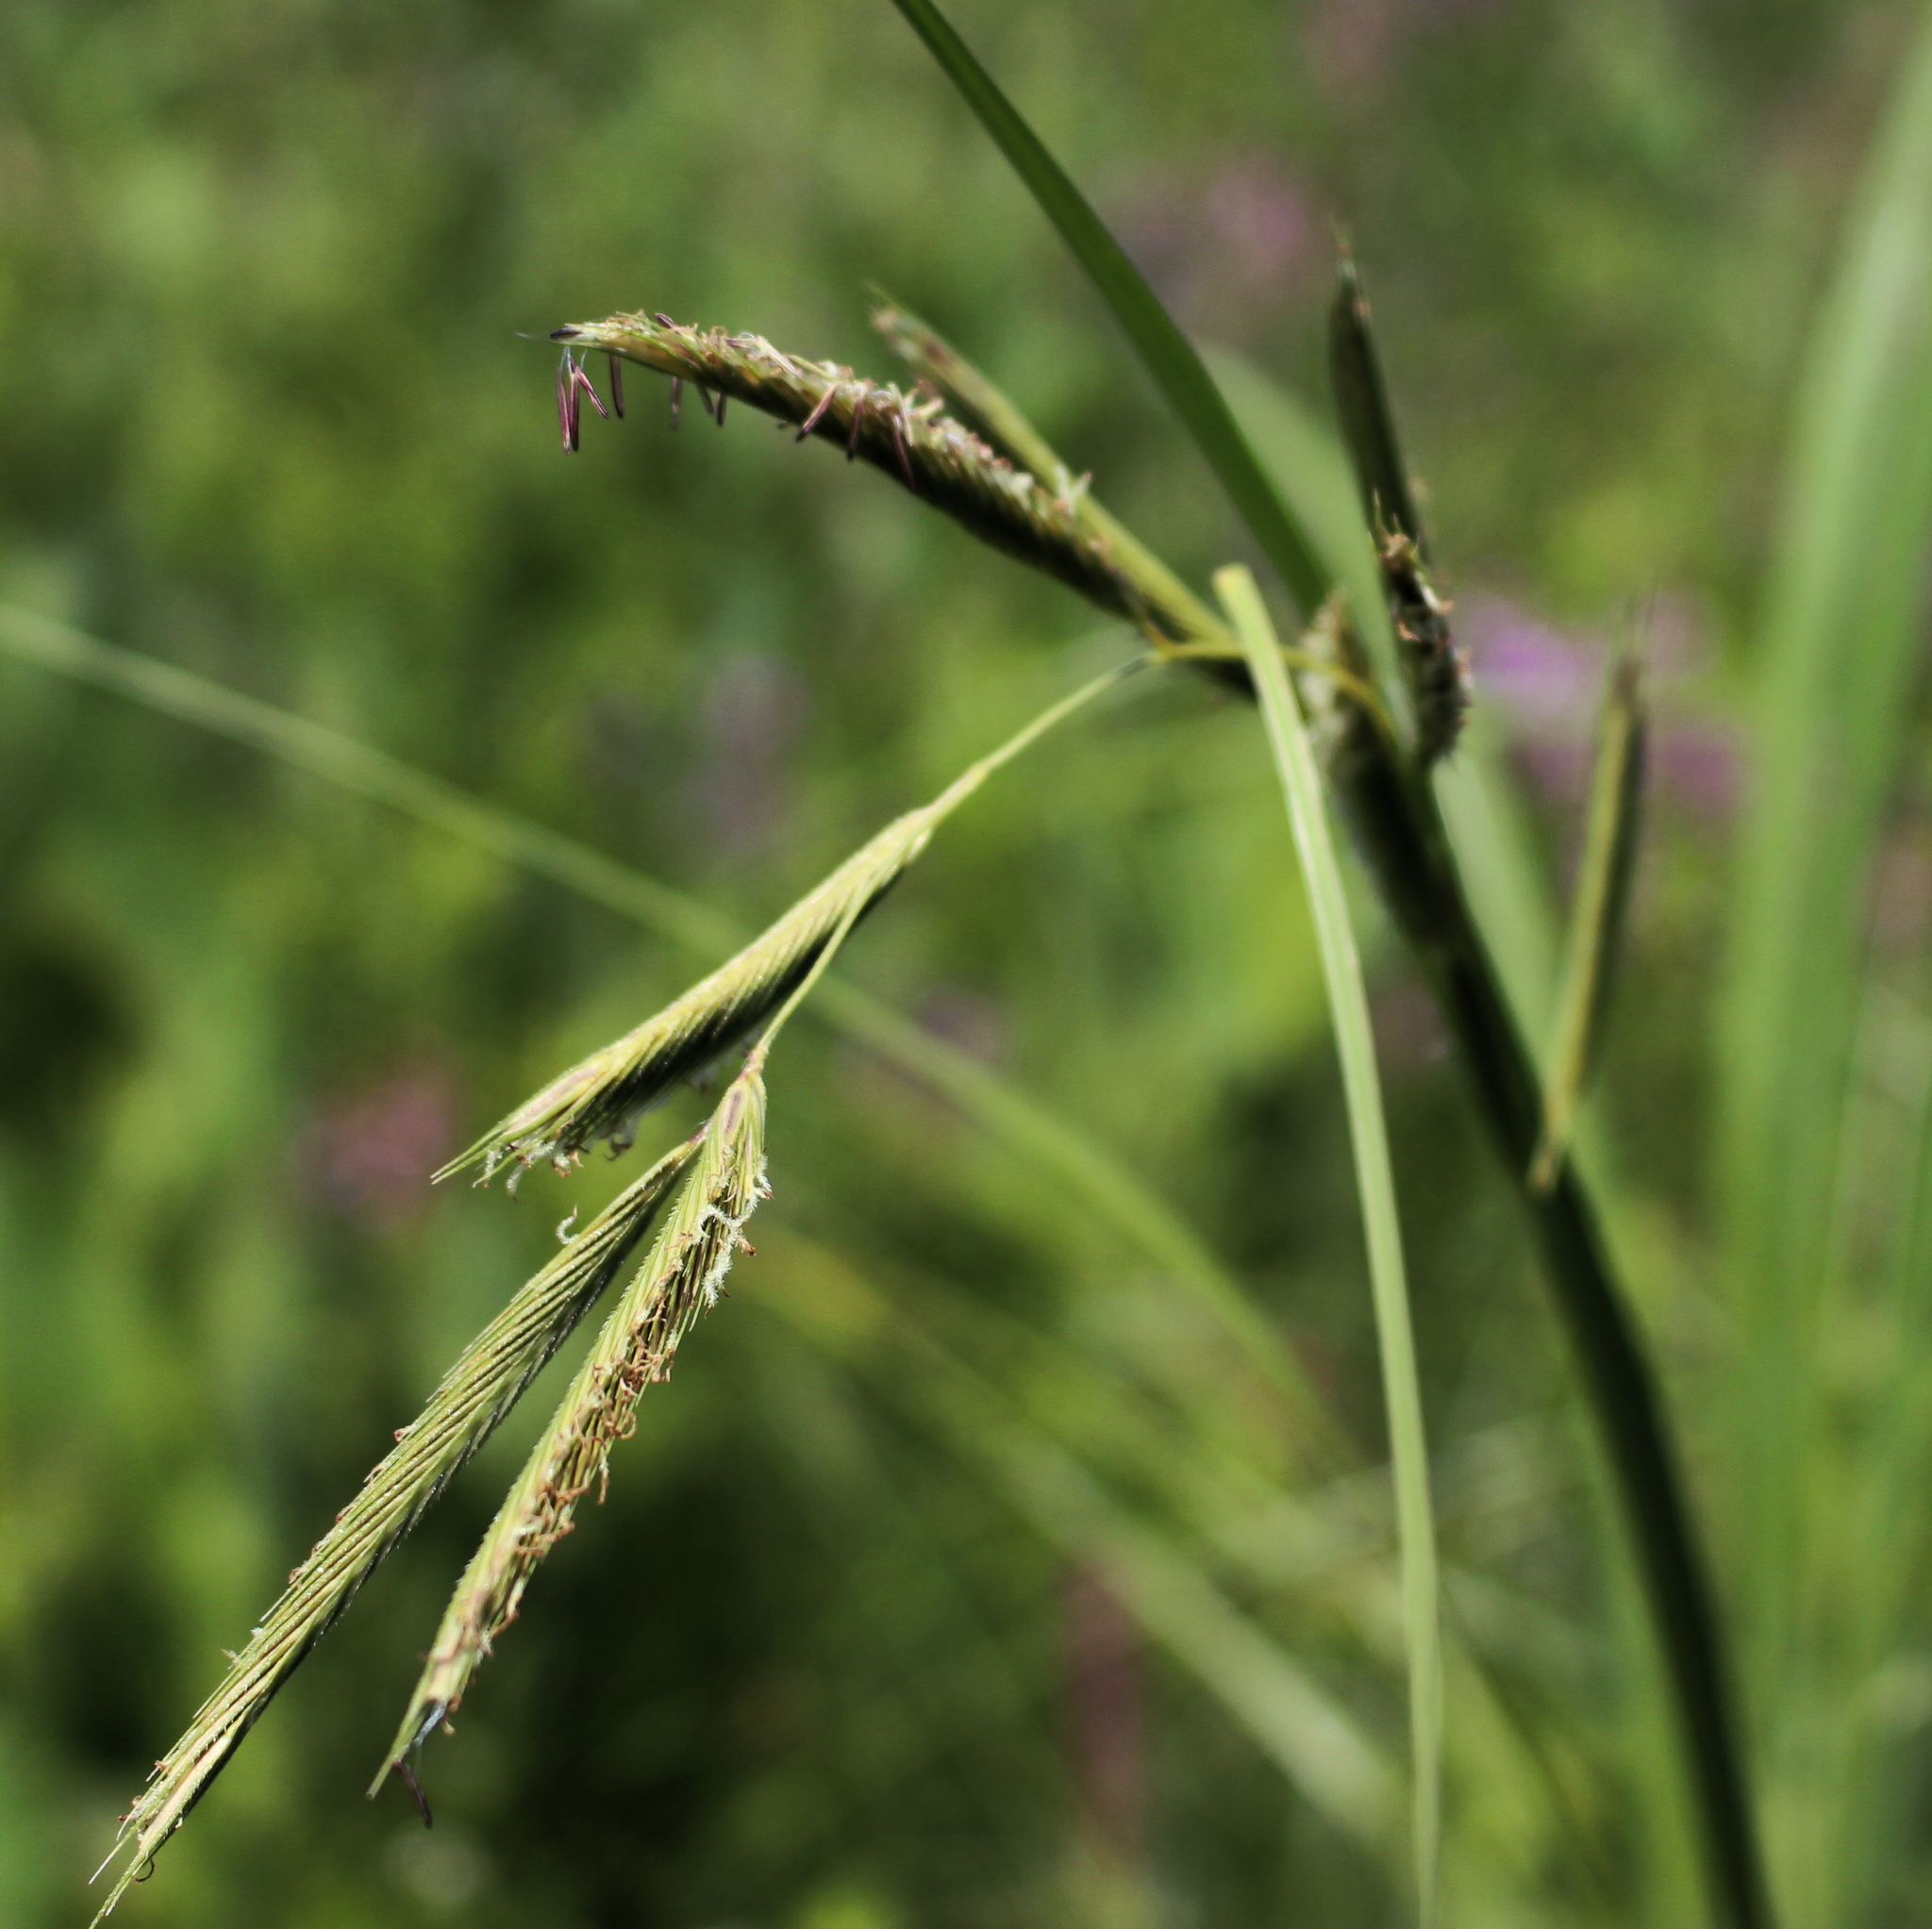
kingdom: Plantae
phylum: Tracheophyta
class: Liliopsida
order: Poales
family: Poaceae
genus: Sporobolus
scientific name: Sporobolus michauxianus
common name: Freshwater cordgrass
